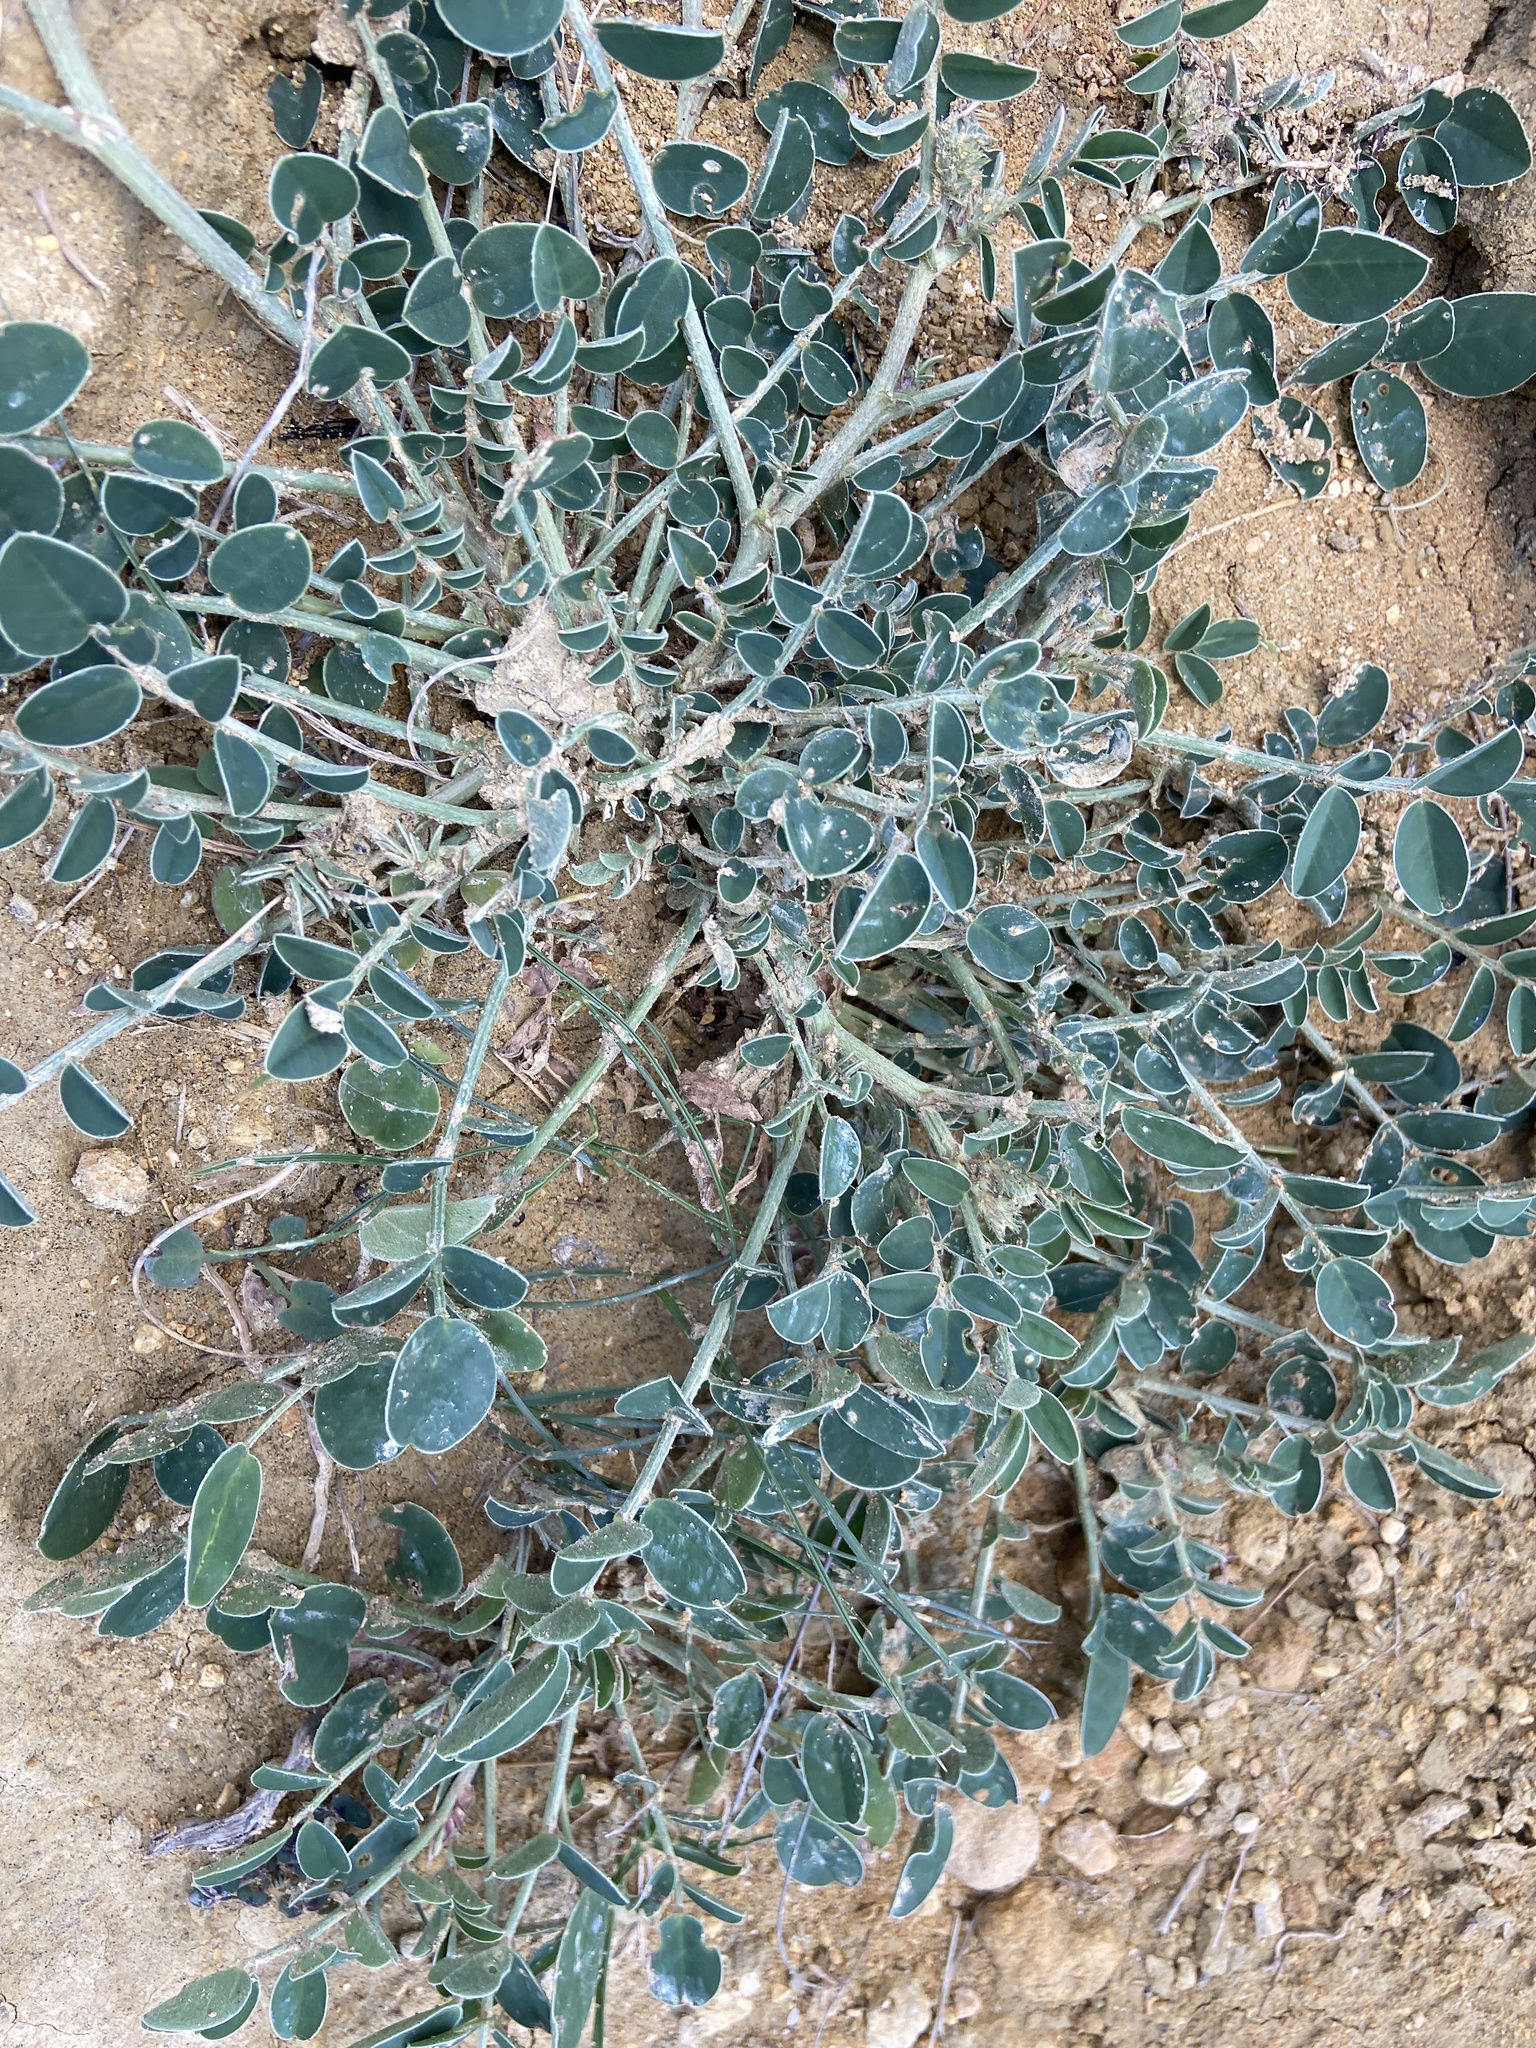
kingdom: Plantae
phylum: Tracheophyta
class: Magnoliopsida
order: Fabales
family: Fabaceae
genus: Sulla
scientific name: Sulla coronaria
